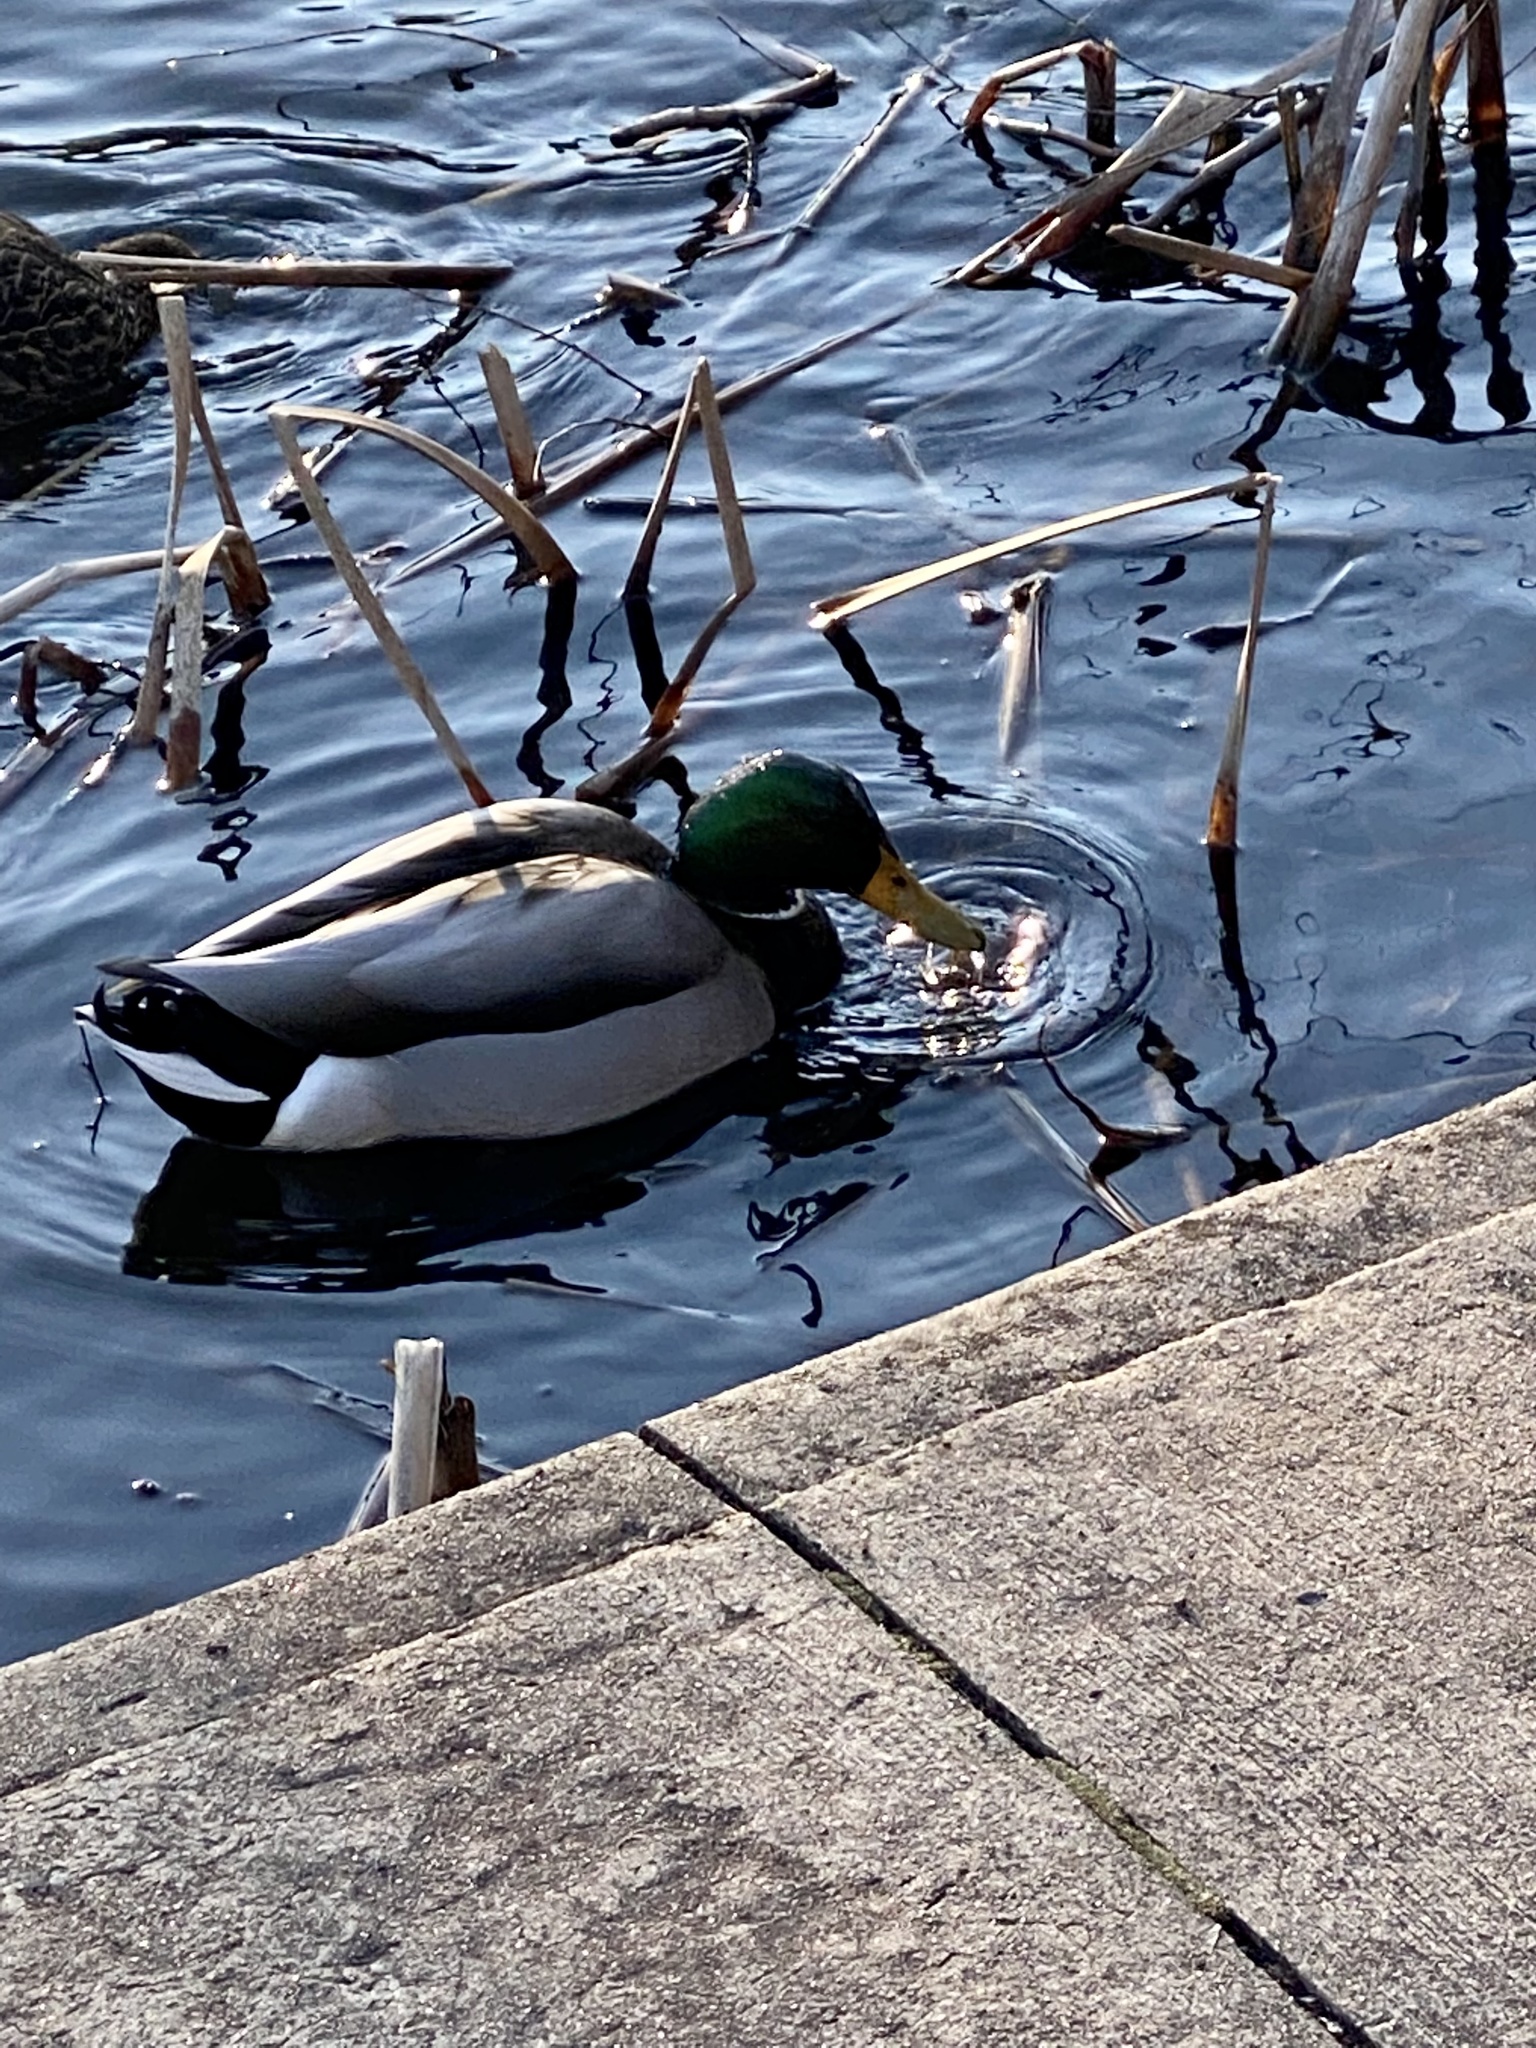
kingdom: Animalia
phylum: Chordata
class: Aves
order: Anseriformes
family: Anatidae
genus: Anas
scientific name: Anas platyrhynchos
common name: Mallard
